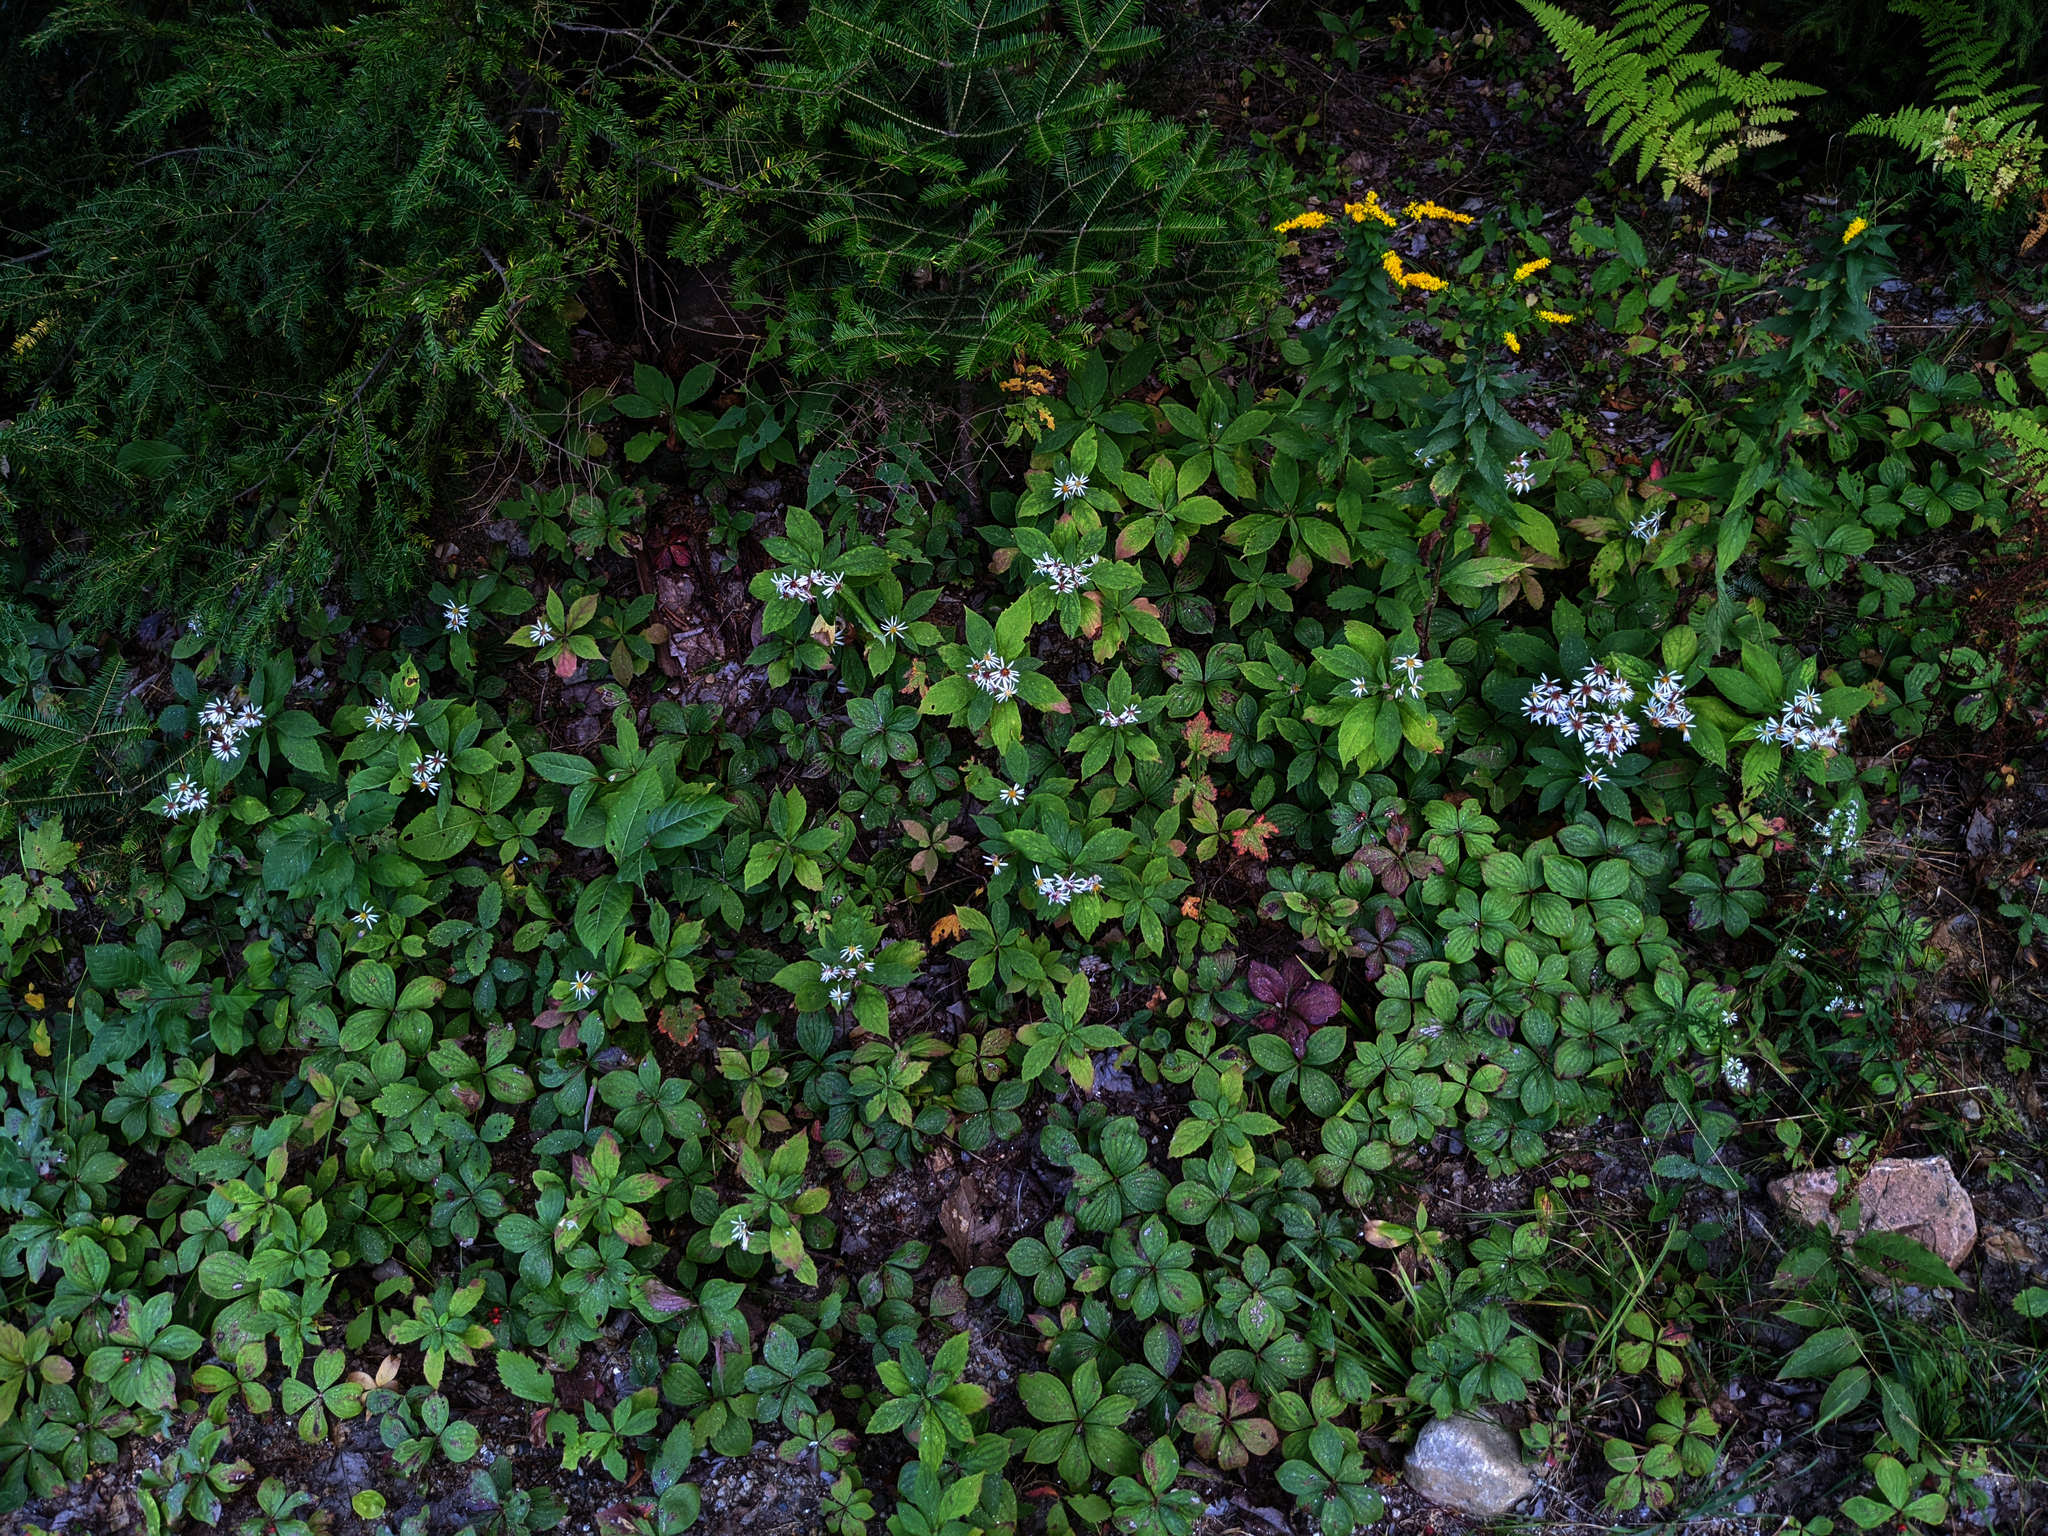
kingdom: Plantae
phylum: Tracheophyta
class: Magnoliopsida
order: Asterales
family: Asteraceae
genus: Oclemena
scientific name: Oclemena acuminata
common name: Mountain aster
